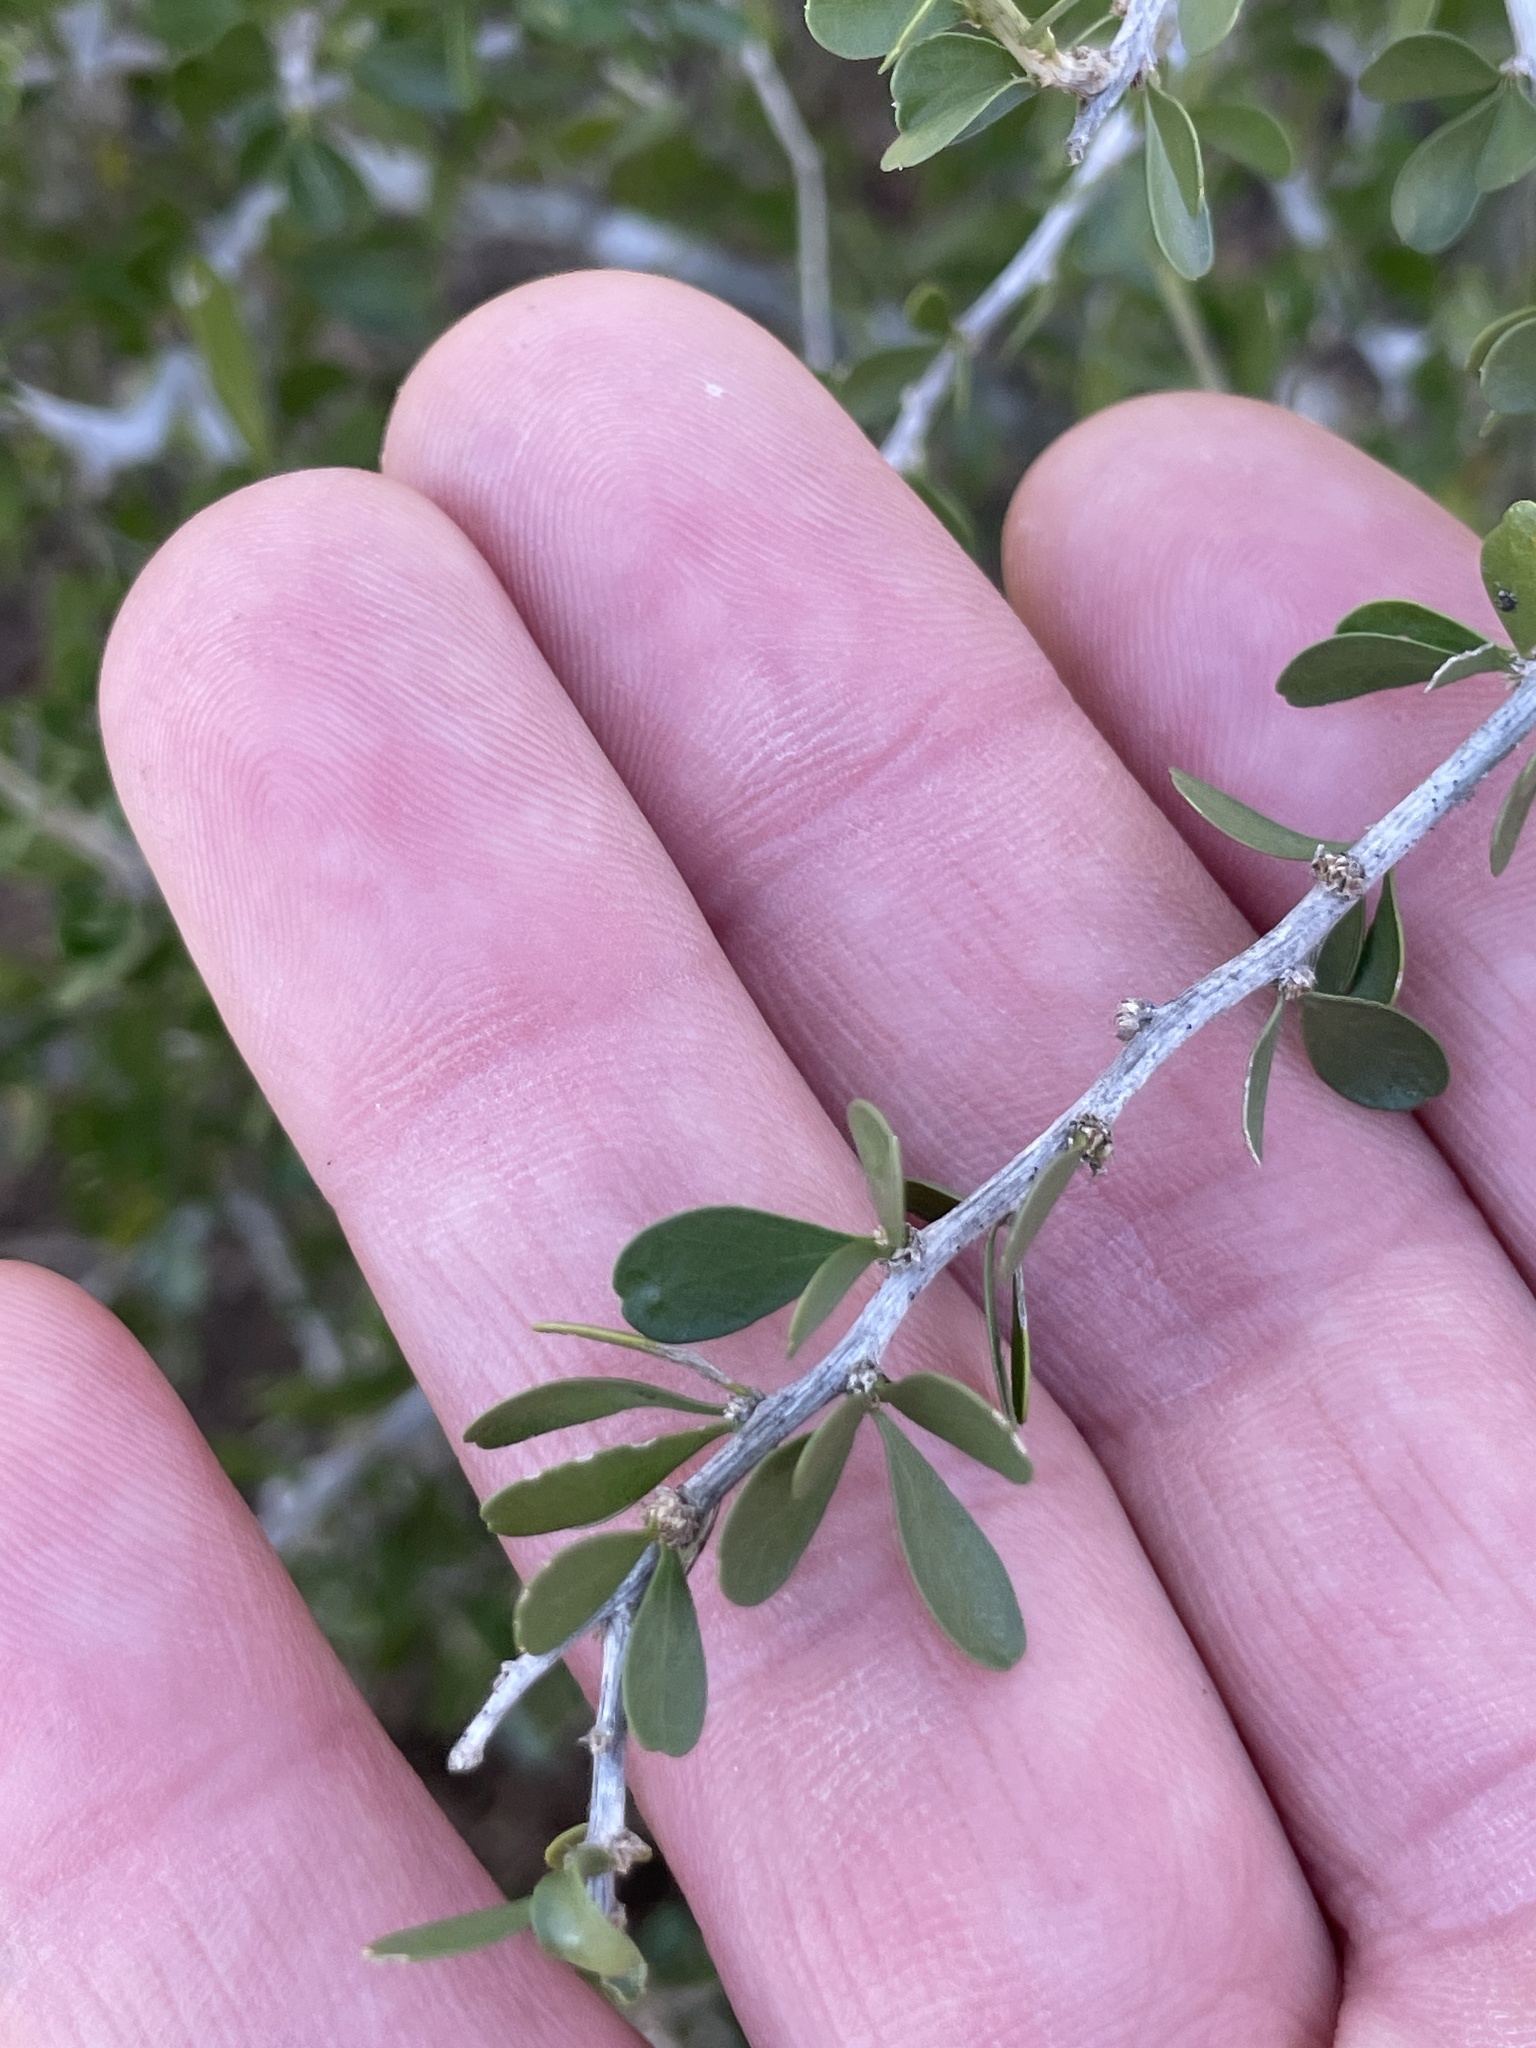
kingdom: Plantae
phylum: Tracheophyta
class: Magnoliopsida
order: Celastrales
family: Celastraceae
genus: Schaefferia
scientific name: Schaefferia cuneifolia
